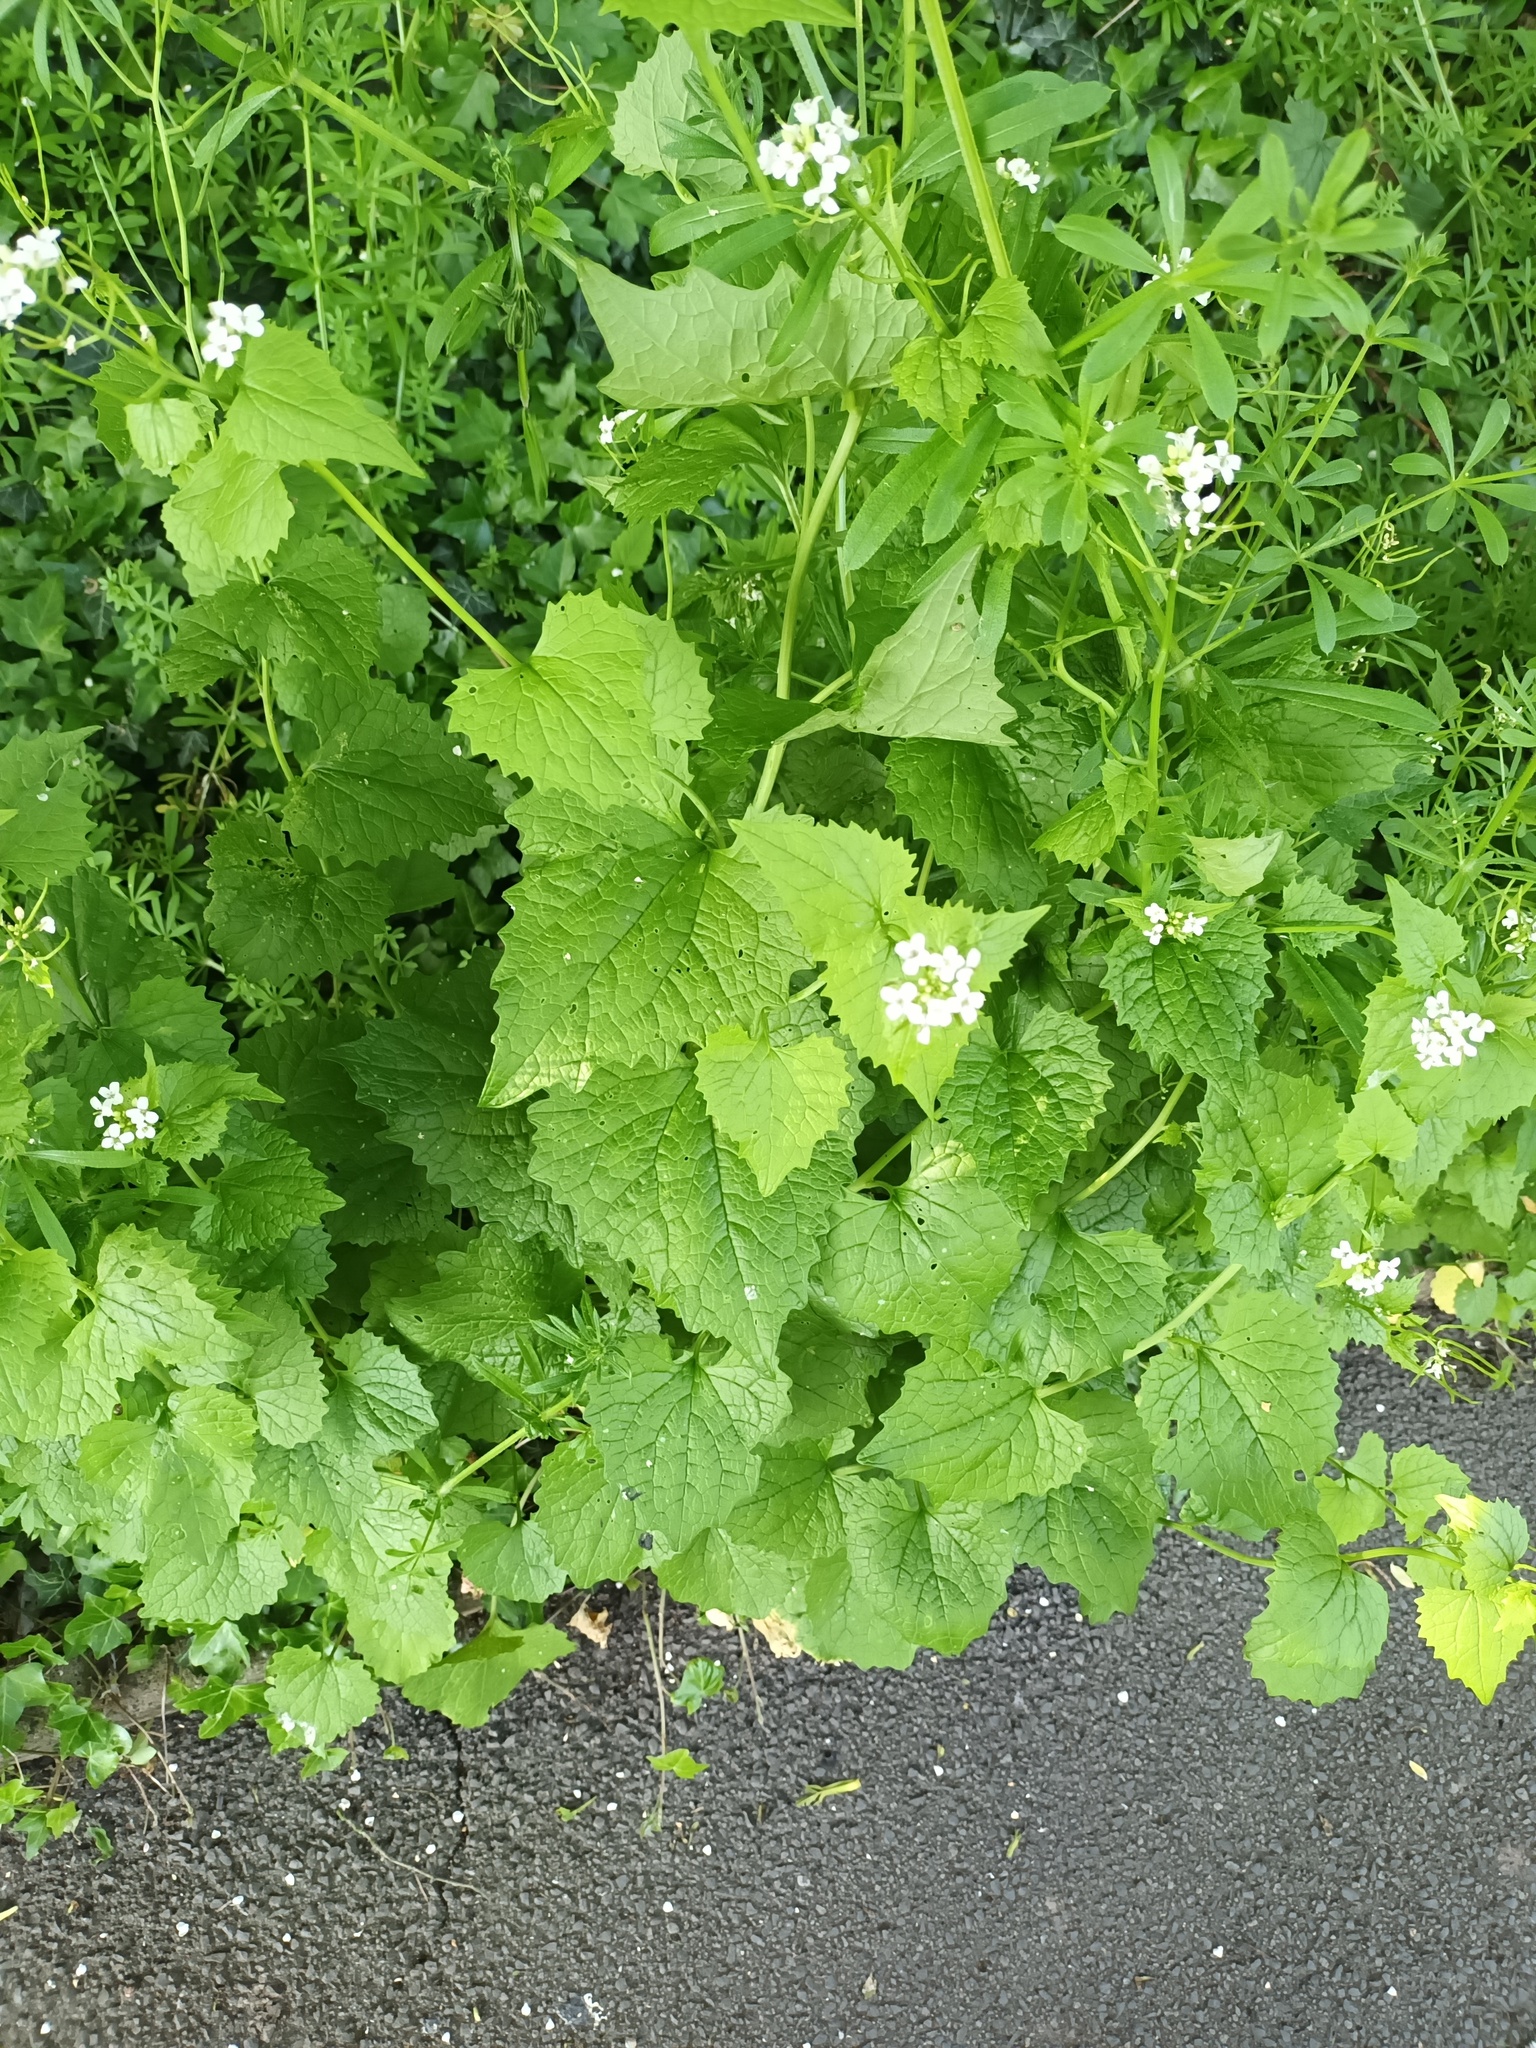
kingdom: Plantae
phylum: Tracheophyta
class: Magnoliopsida
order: Brassicales
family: Brassicaceae
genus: Alliaria
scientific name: Alliaria petiolata
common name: Garlic mustard
